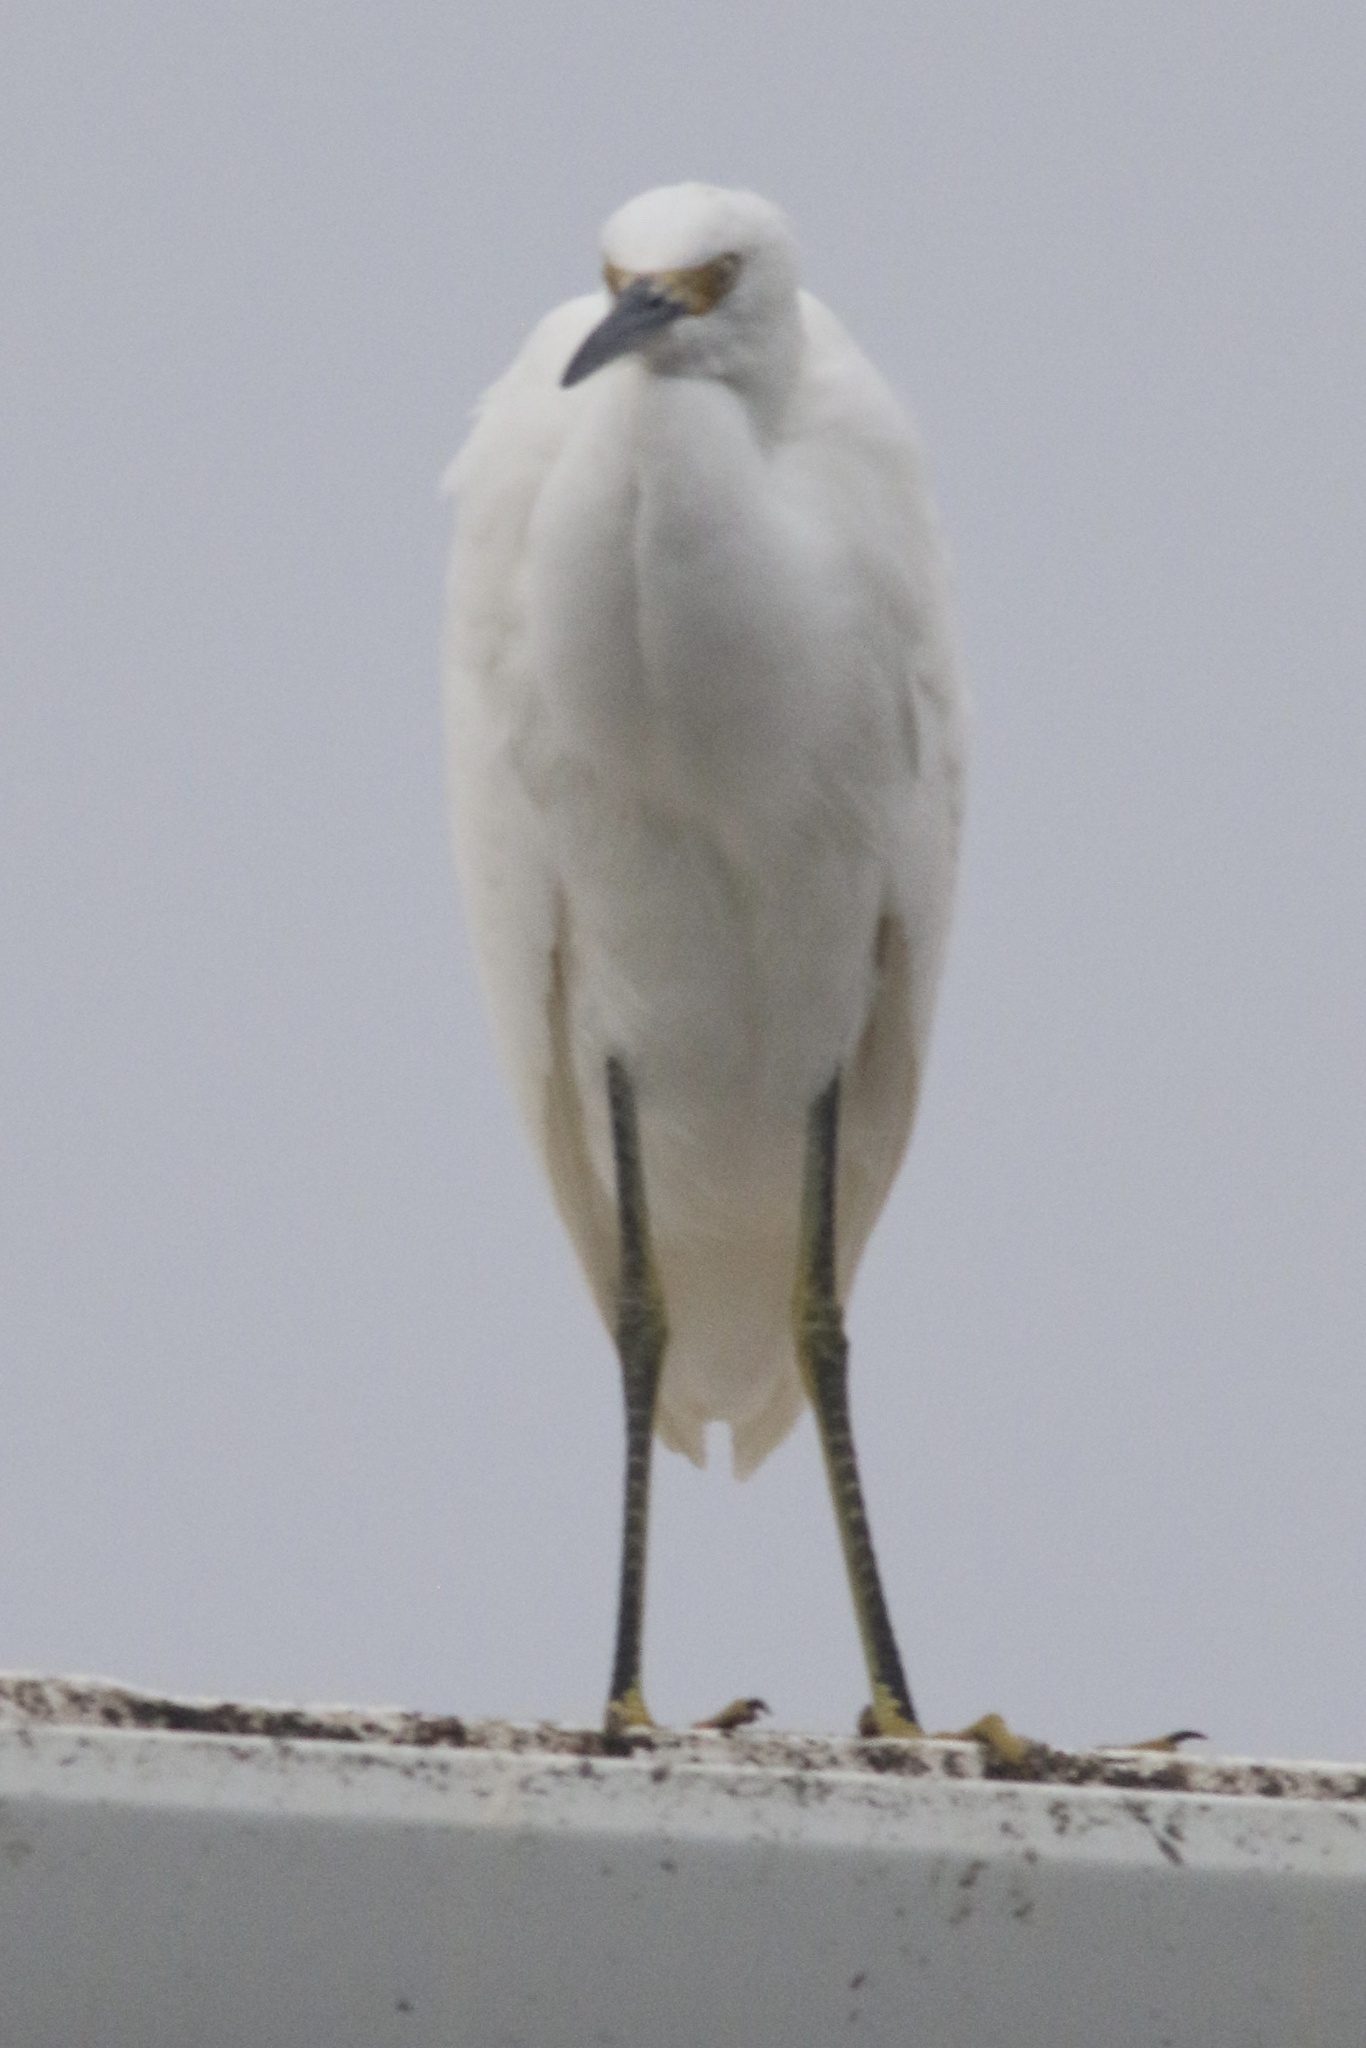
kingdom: Animalia
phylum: Chordata
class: Aves
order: Pelecaniformes
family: Ardeidae
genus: Egretta
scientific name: Egretta thula
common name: Snowy egret
